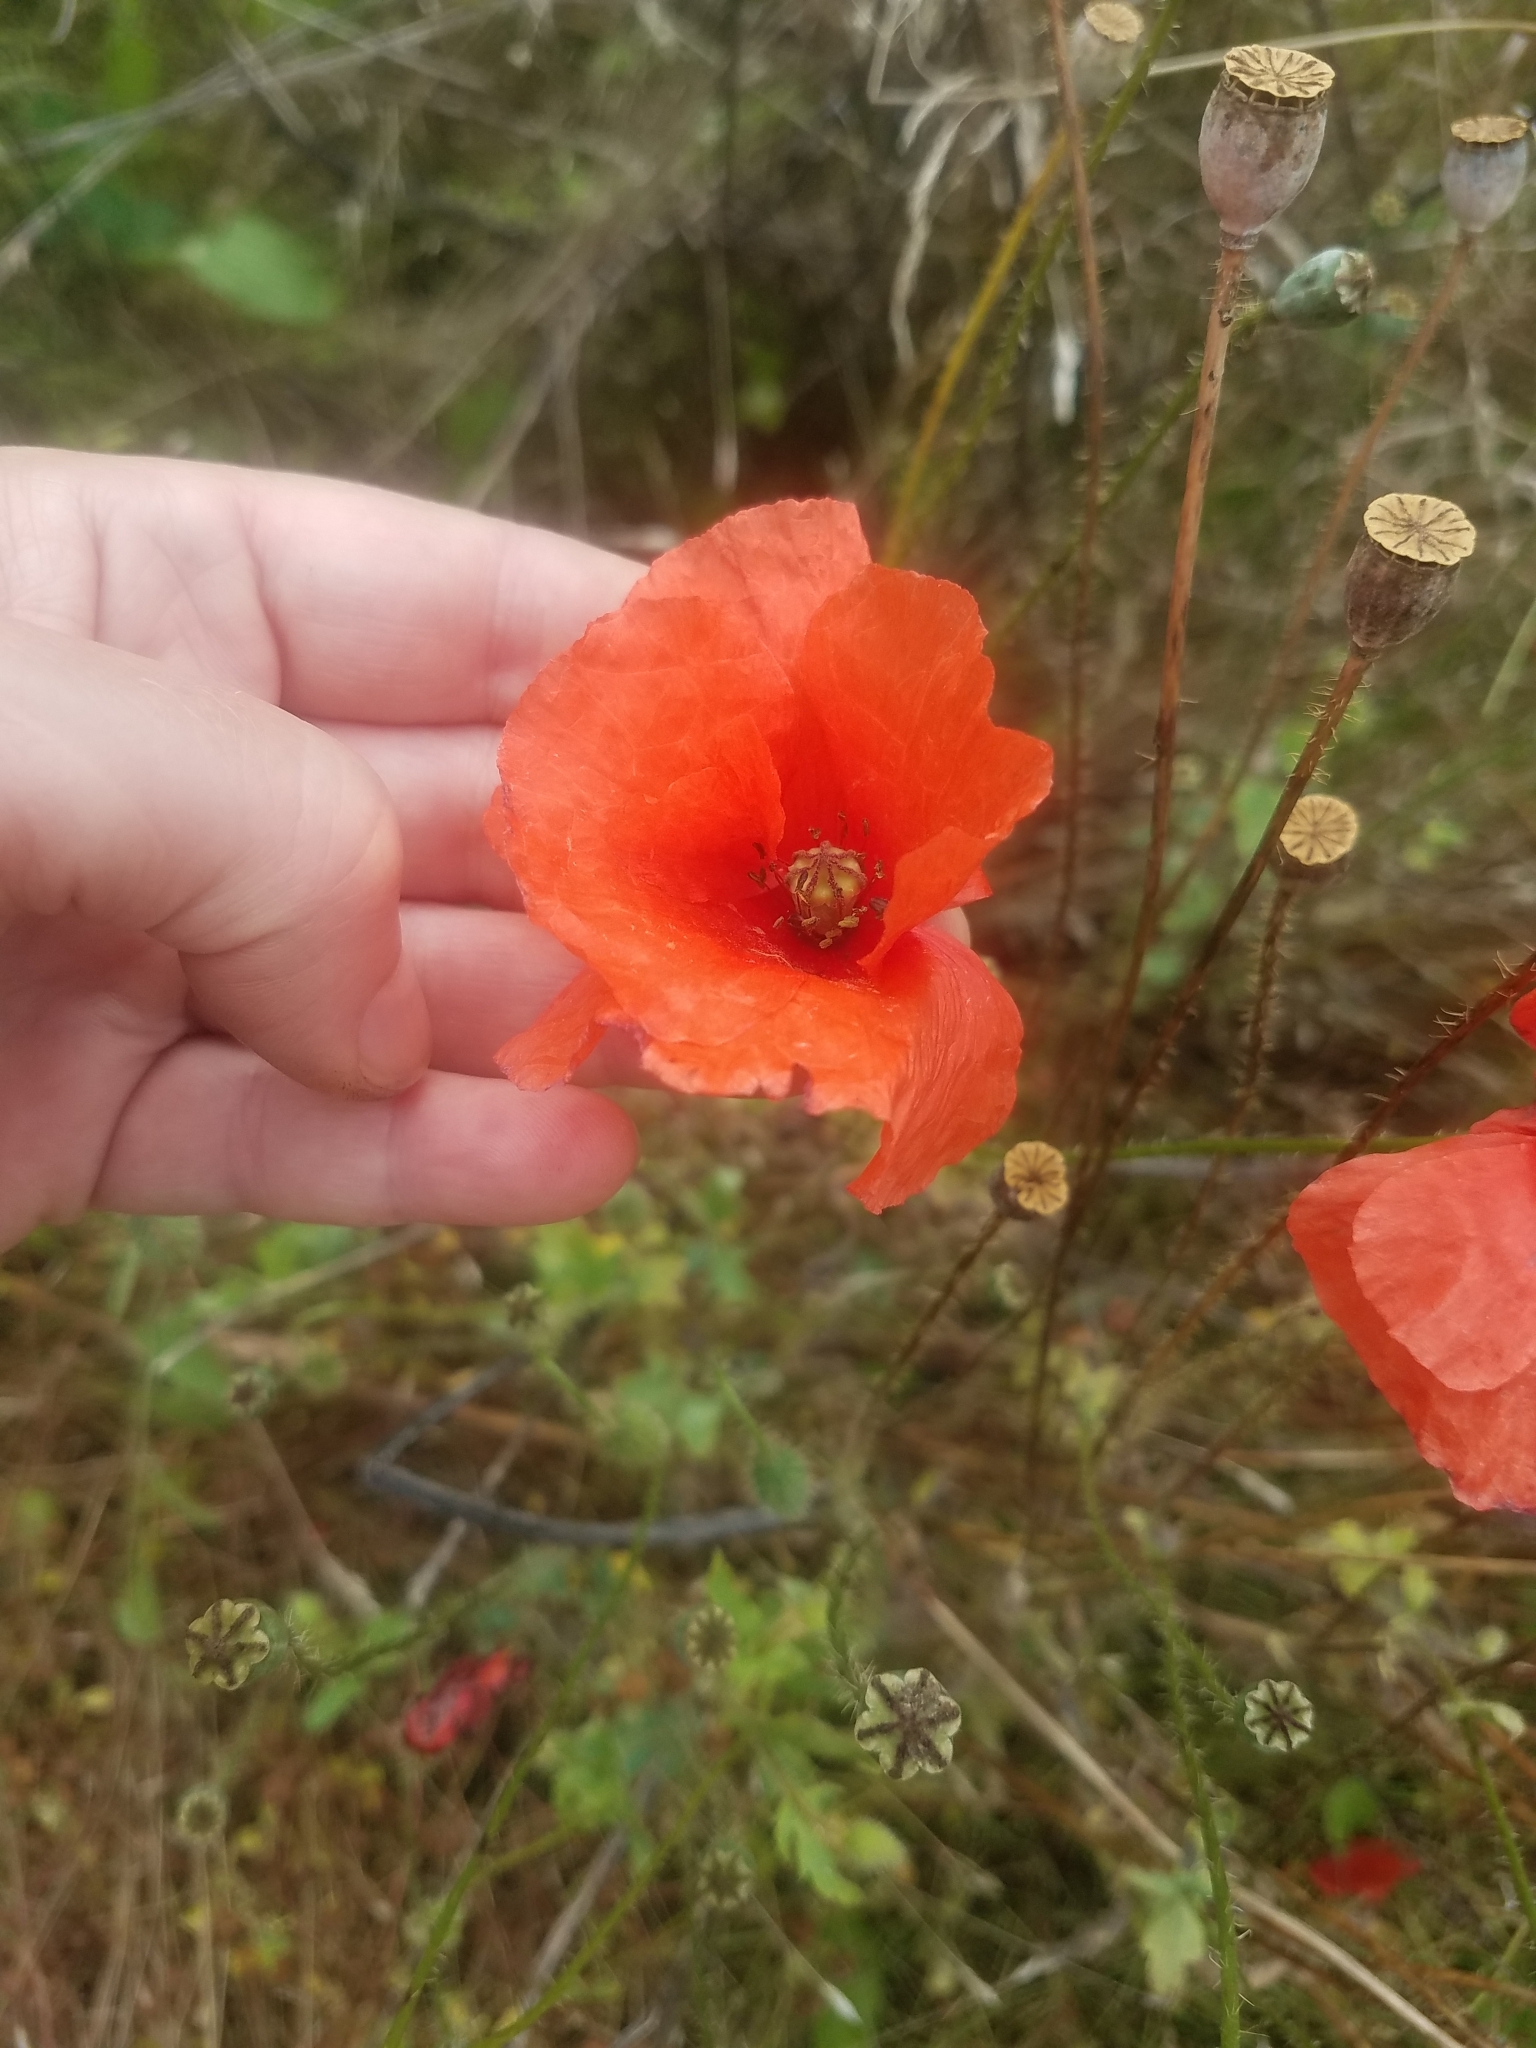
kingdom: Plantae
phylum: Tracheophyta
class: Magnoliopsida
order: Ranunculales
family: Papaveraceae
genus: Papaver
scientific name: Papaver rhoeas
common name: Corn poppy
